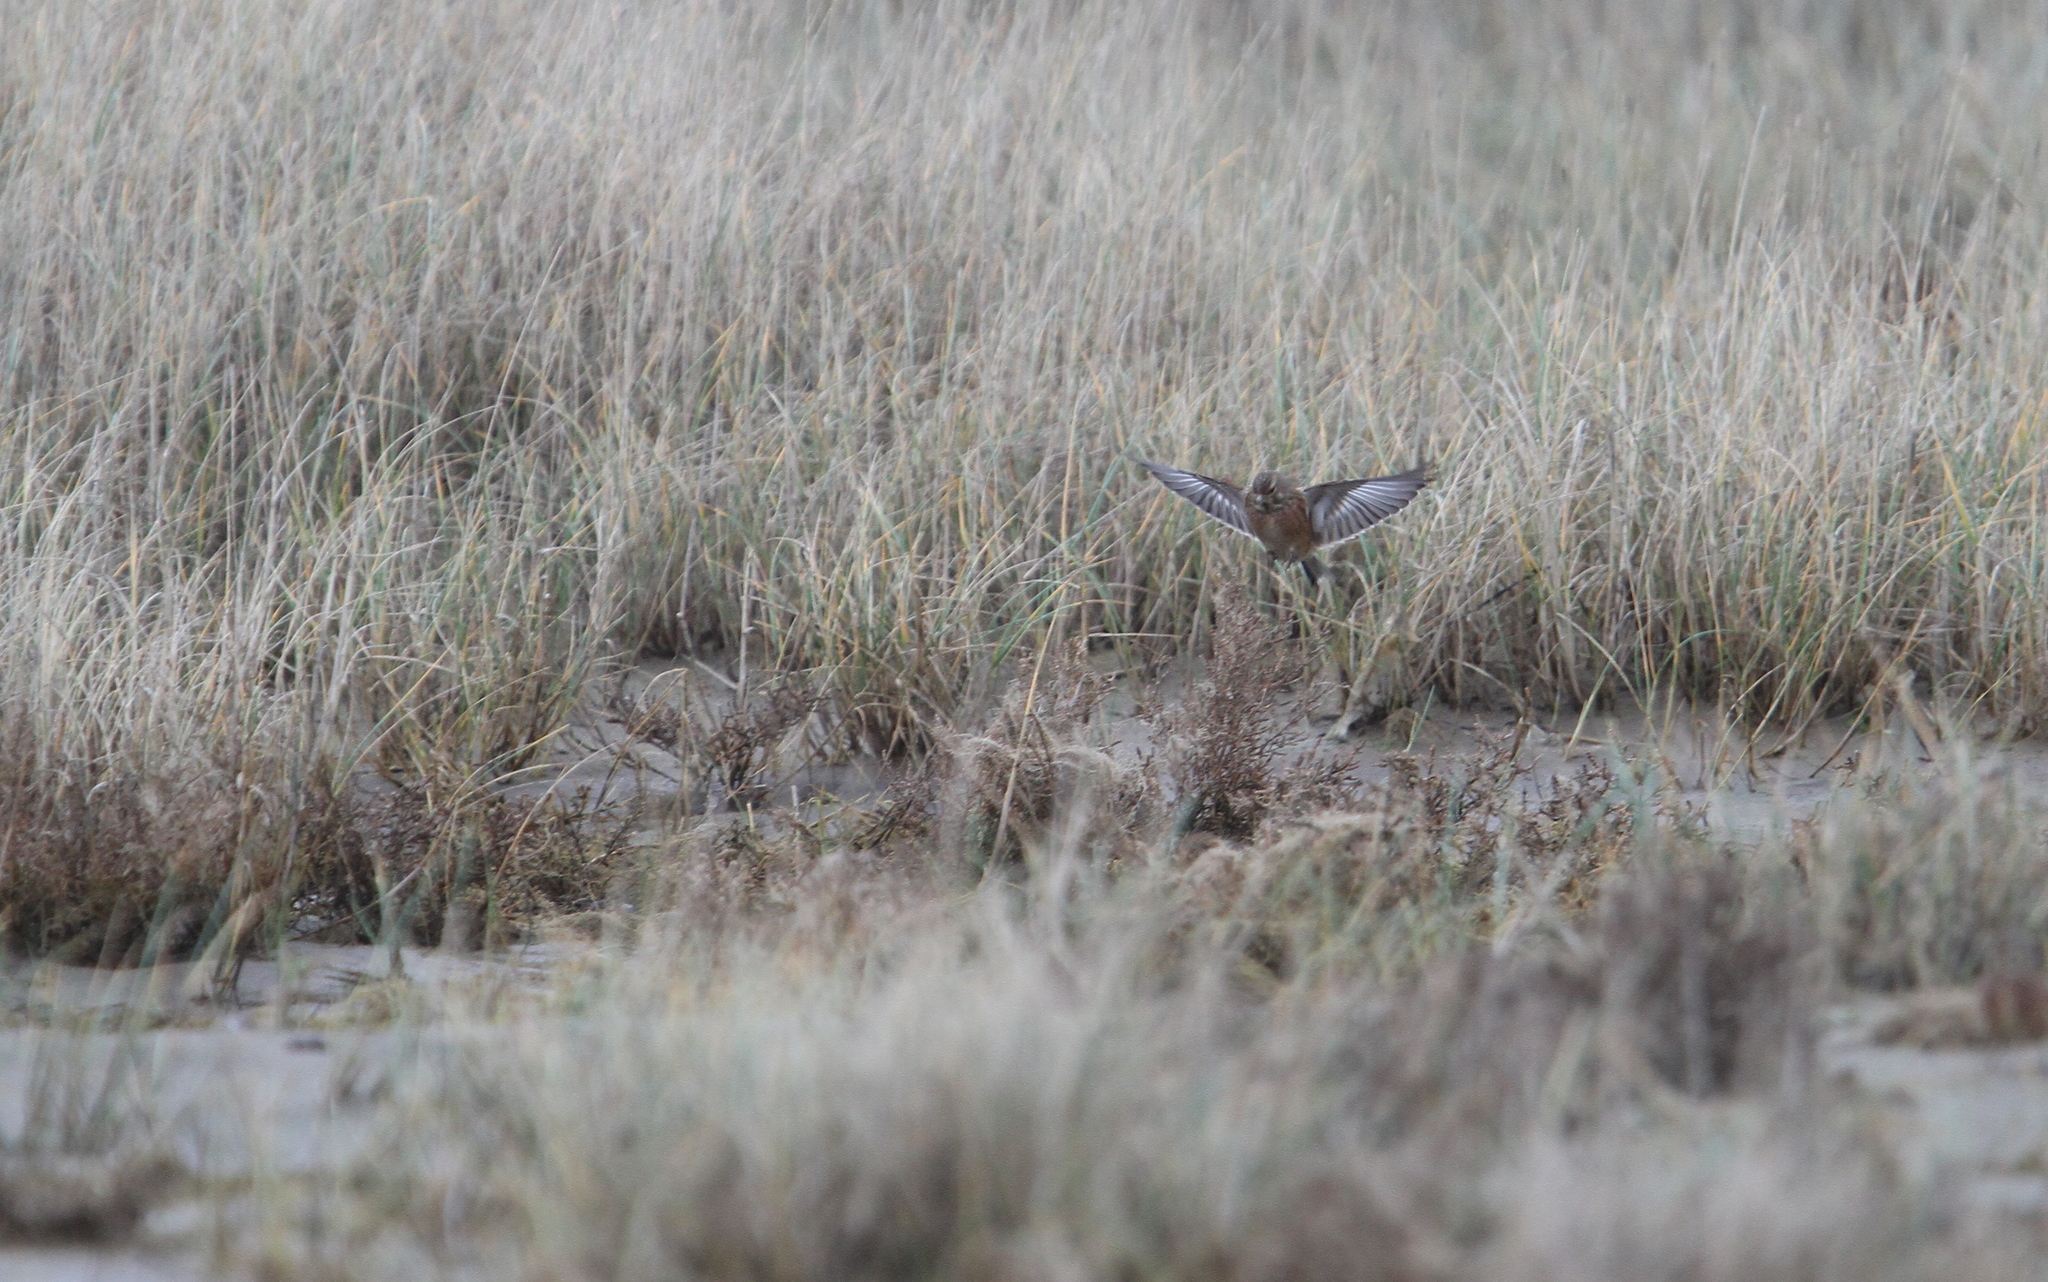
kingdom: Animalia
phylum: Chordata
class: Aves
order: Passeriformes
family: Fringillidae
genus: Linaria
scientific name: Linaria cannabina
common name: Common linnet
